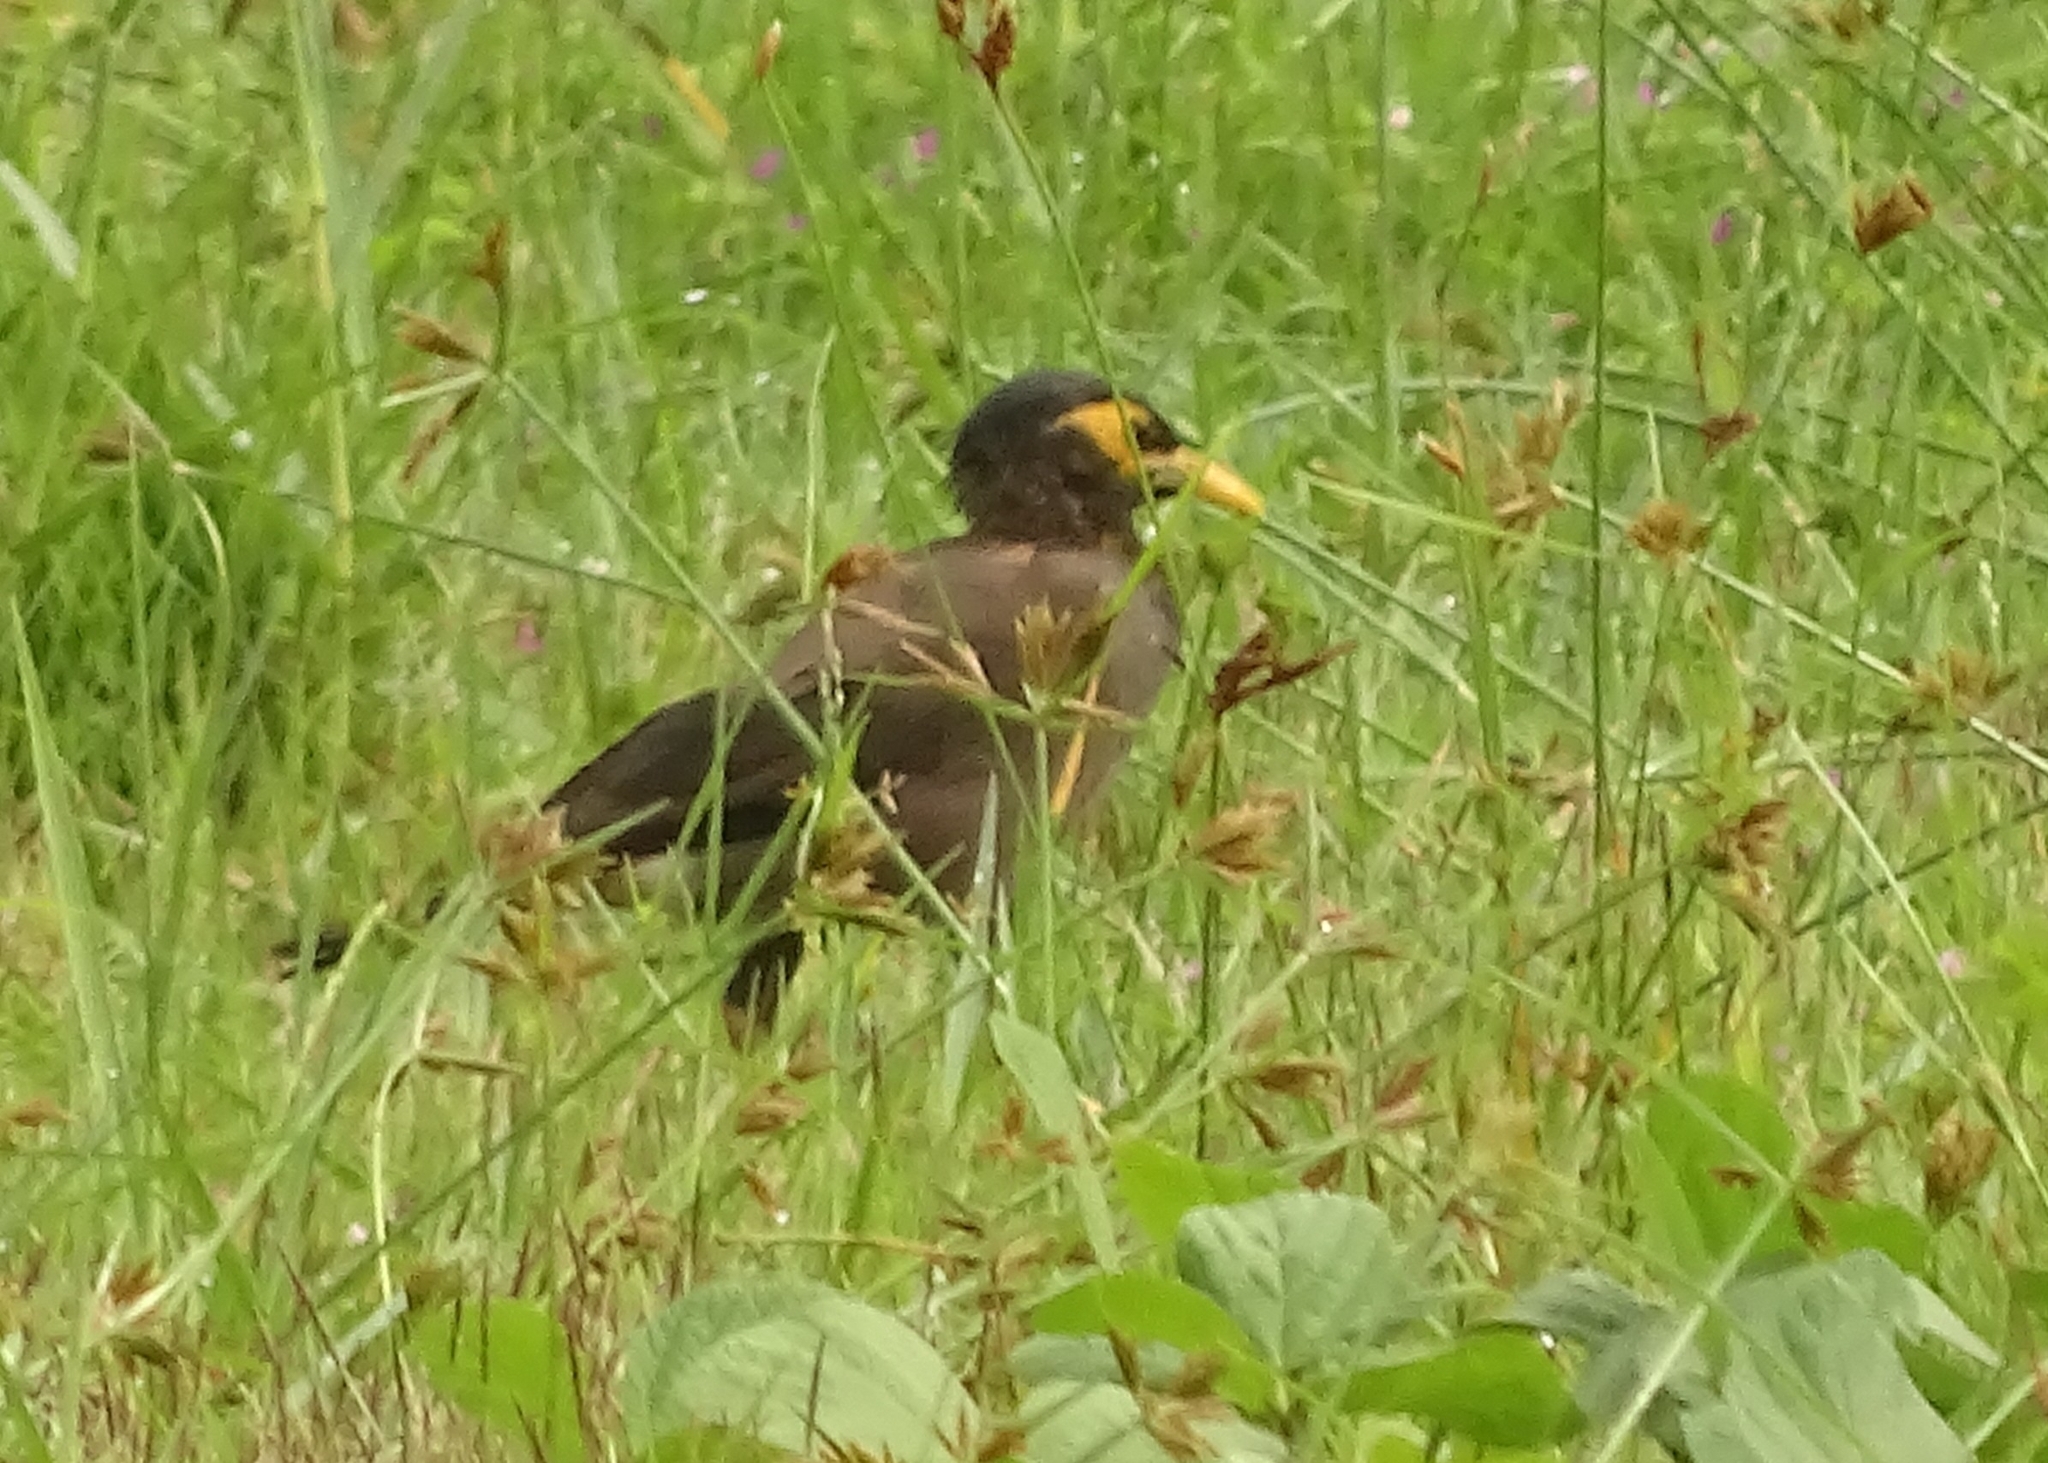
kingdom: Animalia
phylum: Chordata
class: Aves
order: Passeriformes
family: Sturnidae
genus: Acridotheres
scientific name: Acridotheres tristis
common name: Common myna
